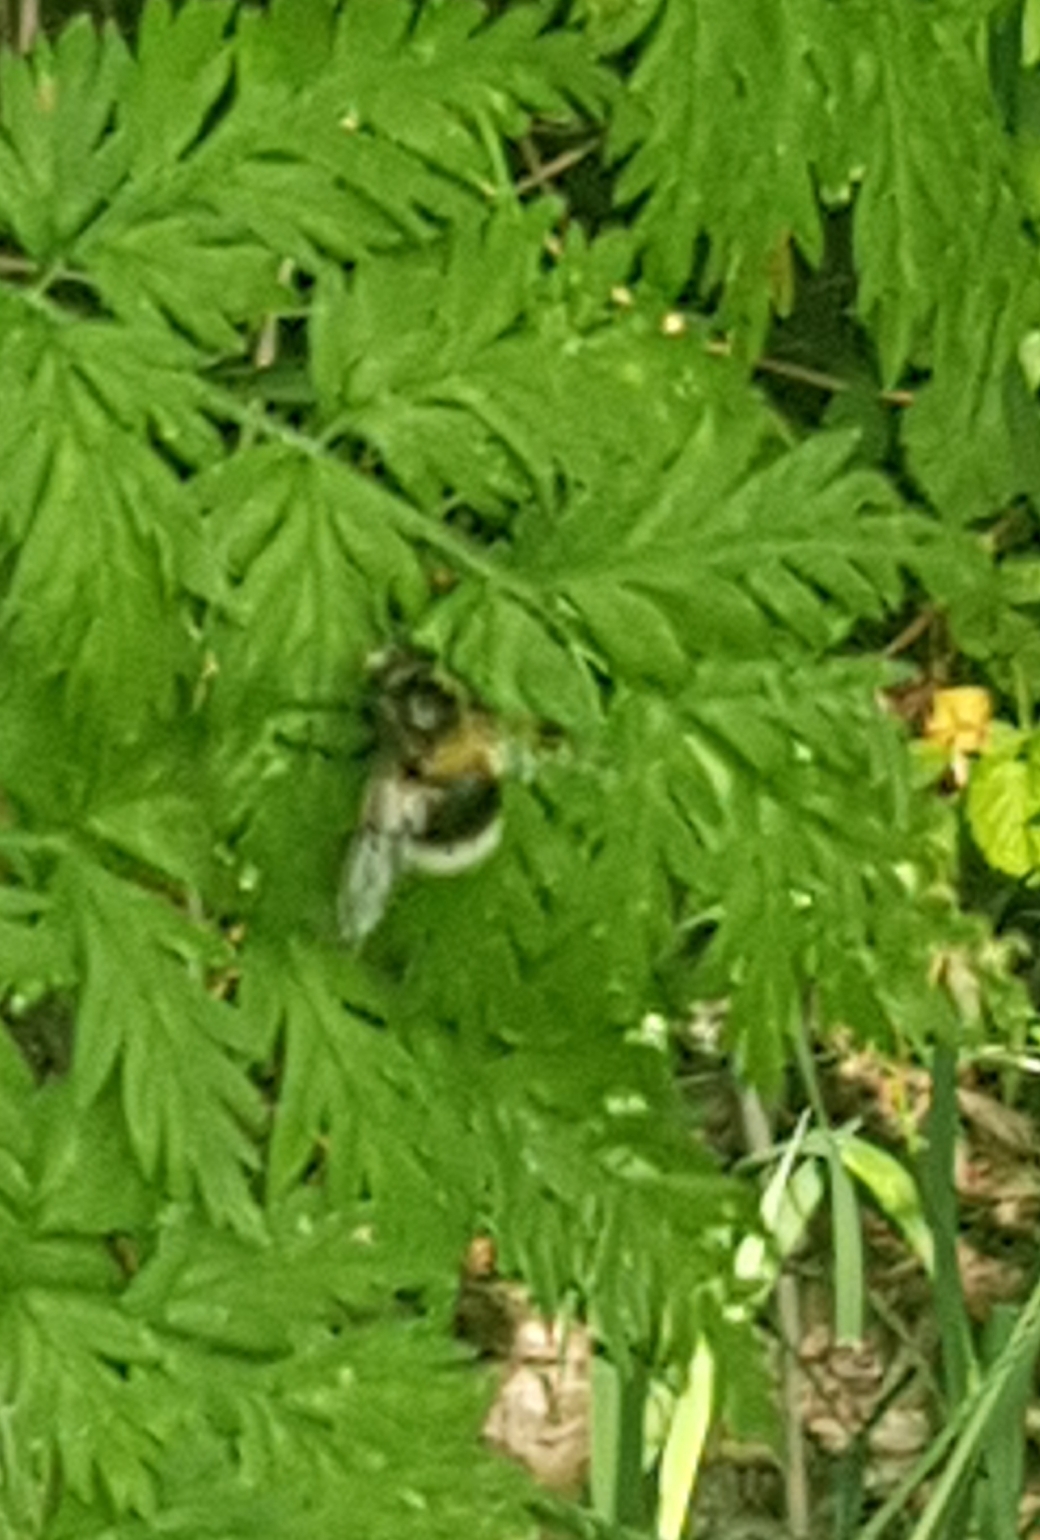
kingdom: Animalia
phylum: Arthropoda
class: Insecta
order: Diptera
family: Syrphidae
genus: Volucella
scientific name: Volucella bombylans
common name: Bumble bee hover fly
